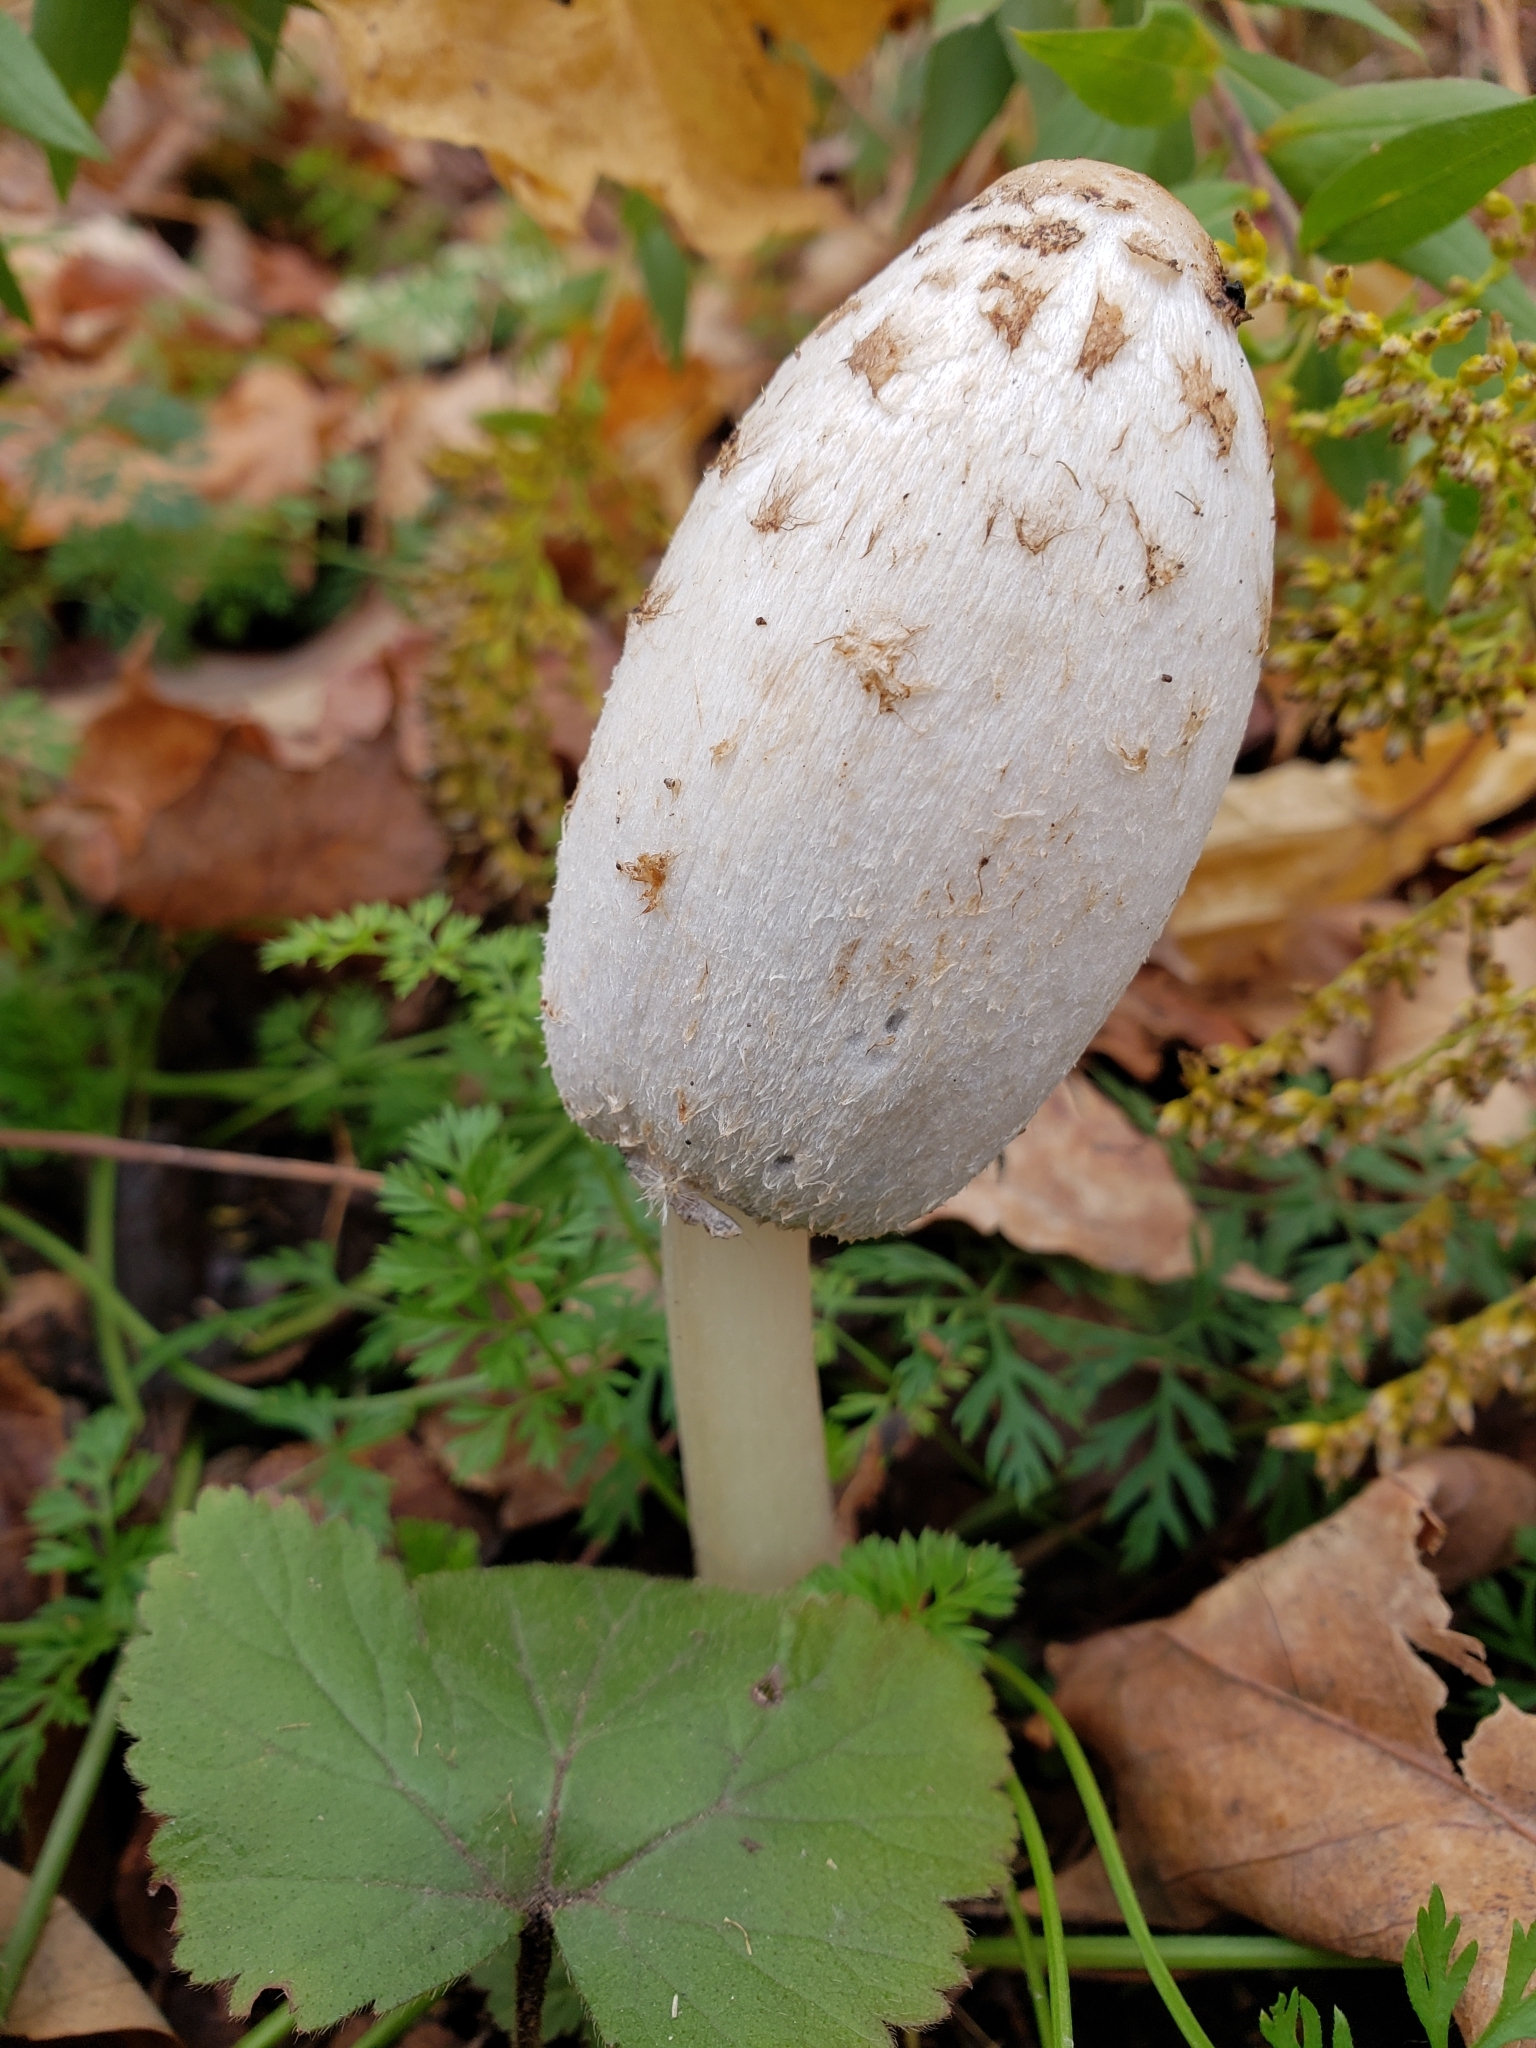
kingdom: Fungi
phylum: Basidiomycota
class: Agaricomycetes
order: Agaricales
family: Agaricaceae
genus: Coprinus
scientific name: Coprinus comatus
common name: Lawyer's wig
